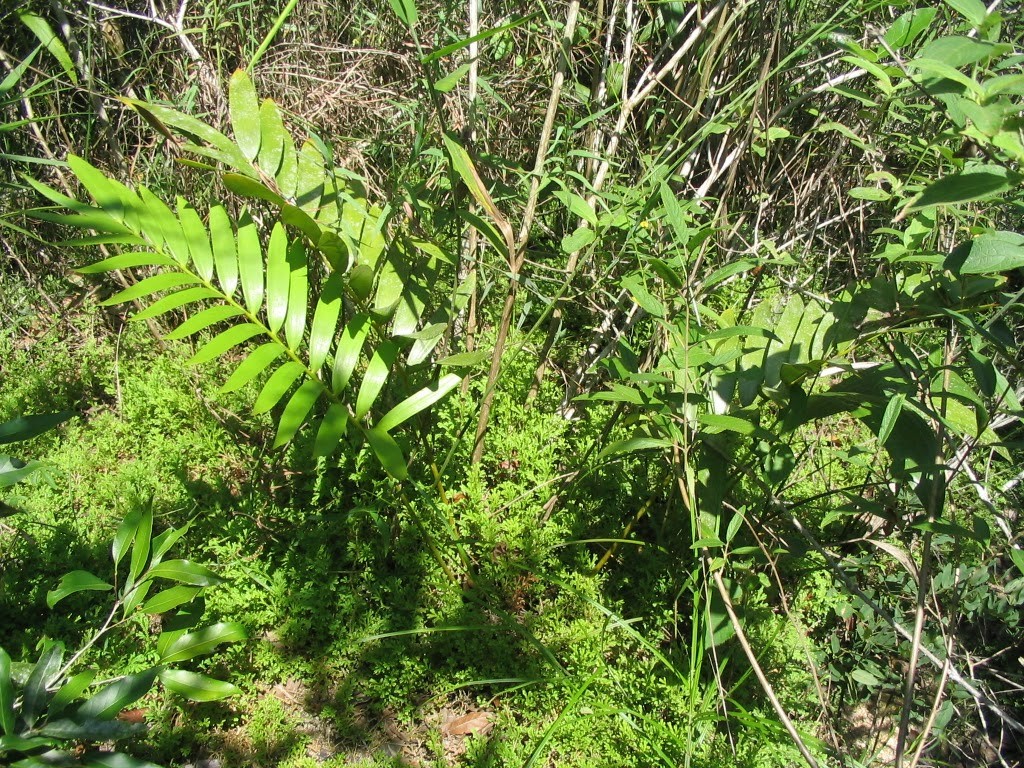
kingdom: Plantae
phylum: Tracheophyta
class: Cycadopsida
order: Cycadales
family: Zamiaceae
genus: Zamia
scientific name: Zamia paucijuga
